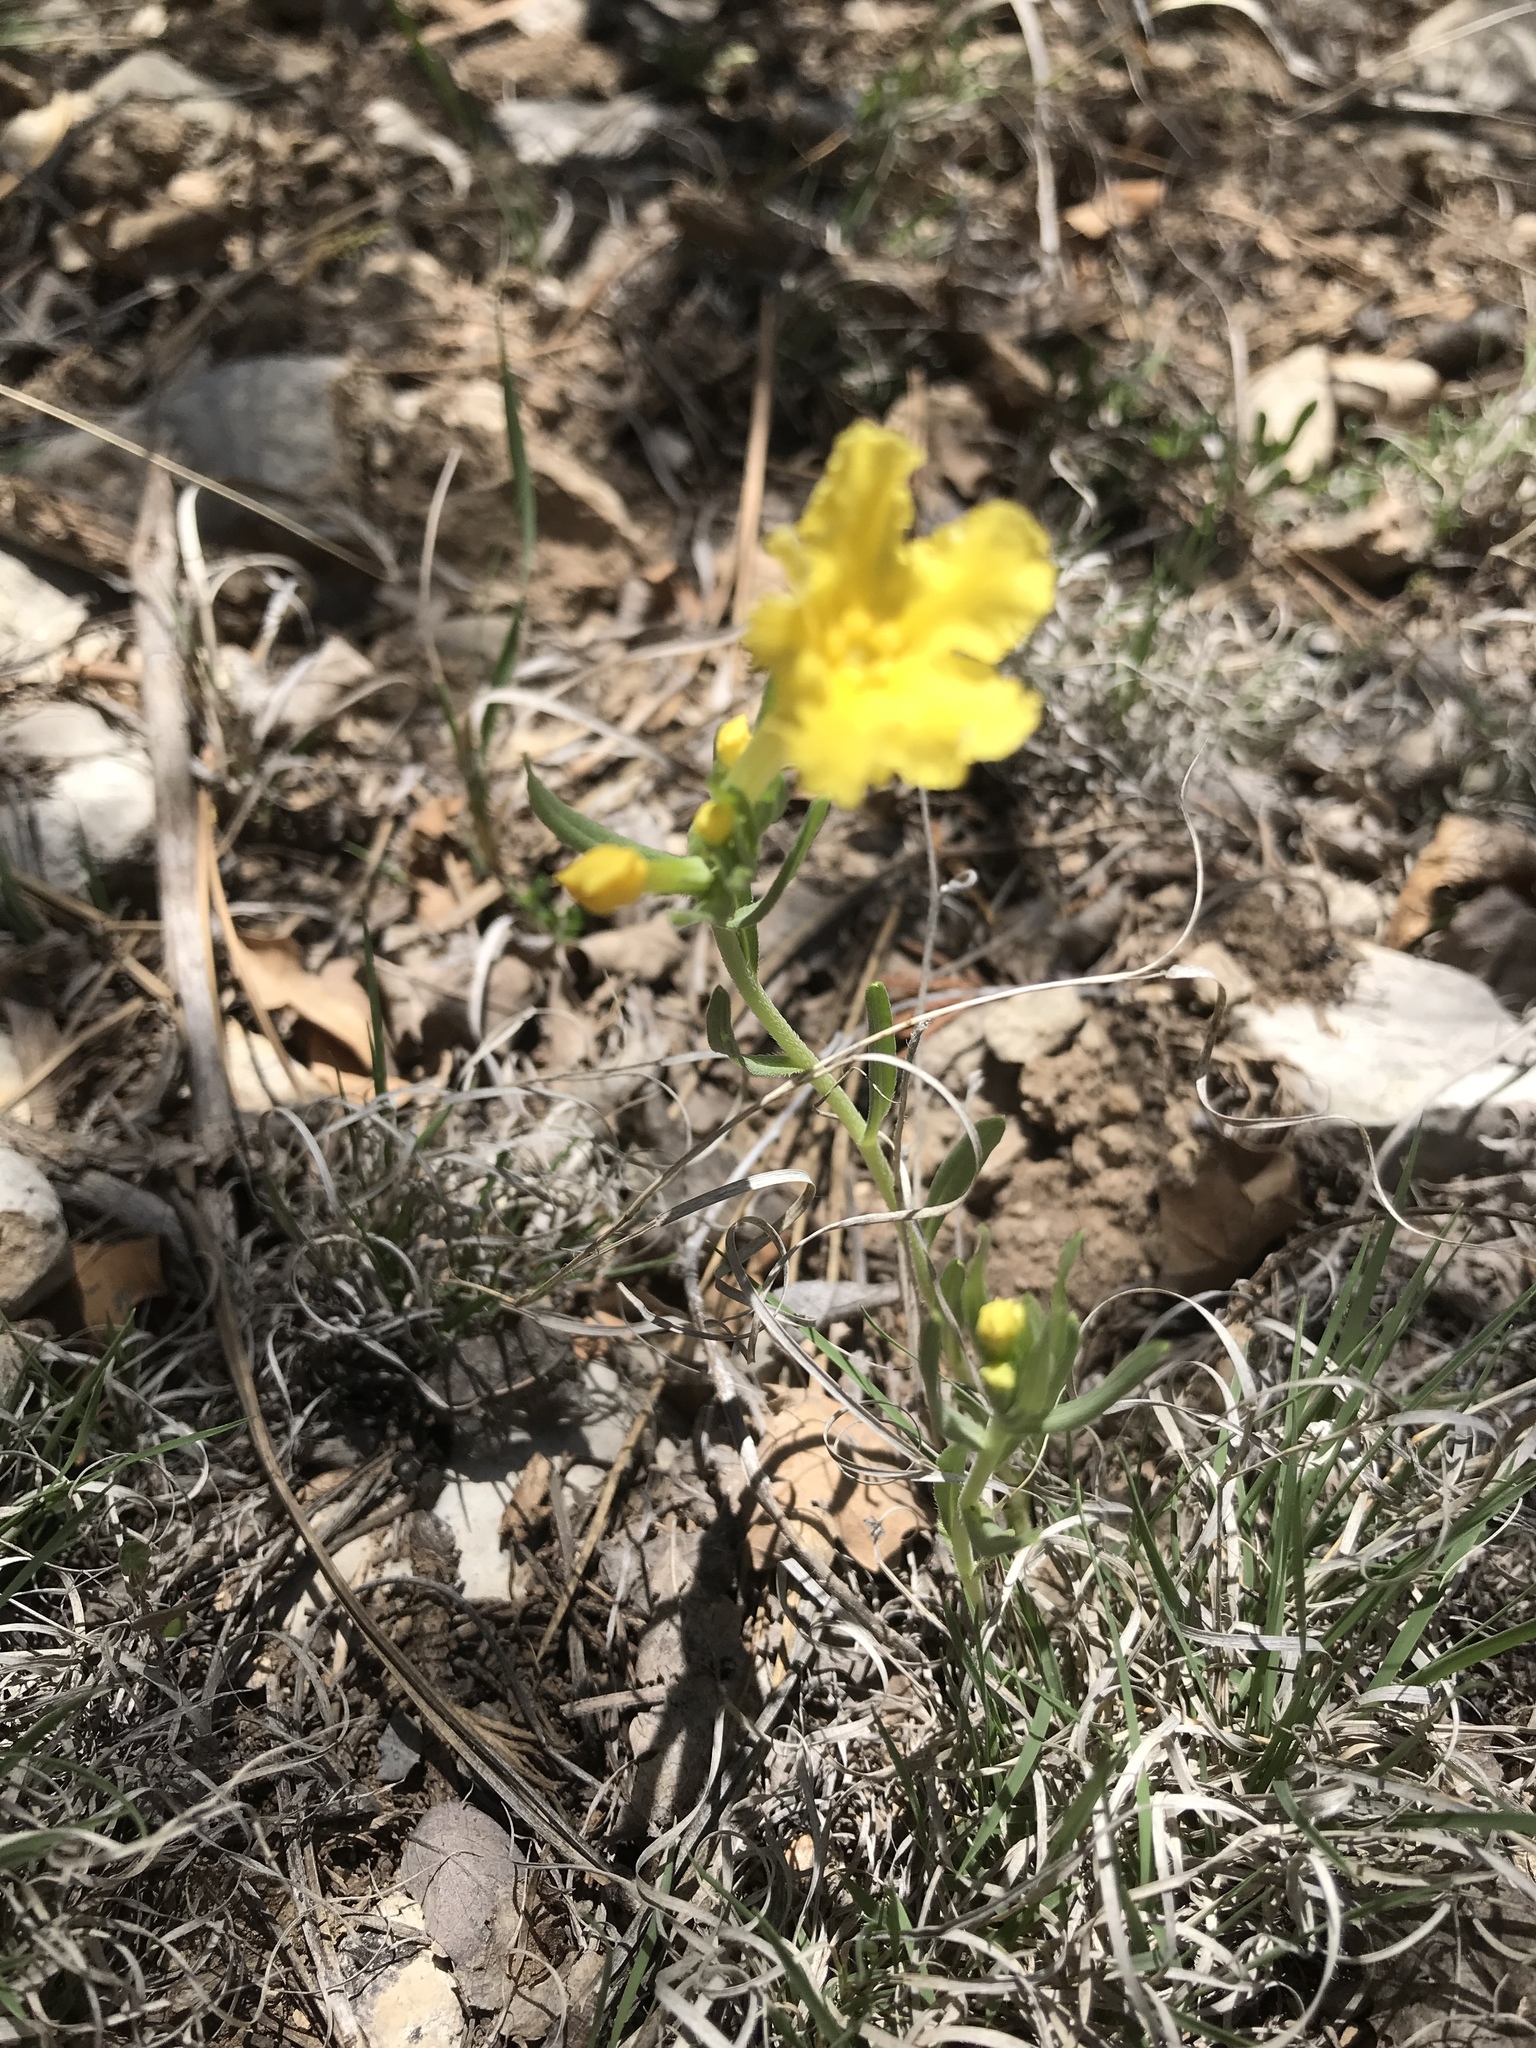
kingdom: Plantae
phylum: Tracheophyta
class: Magnoliopsida
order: Boraginales
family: Boraginaceae
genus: Lithospermum
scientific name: Lithospermum incisum
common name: Fringed gromwell
